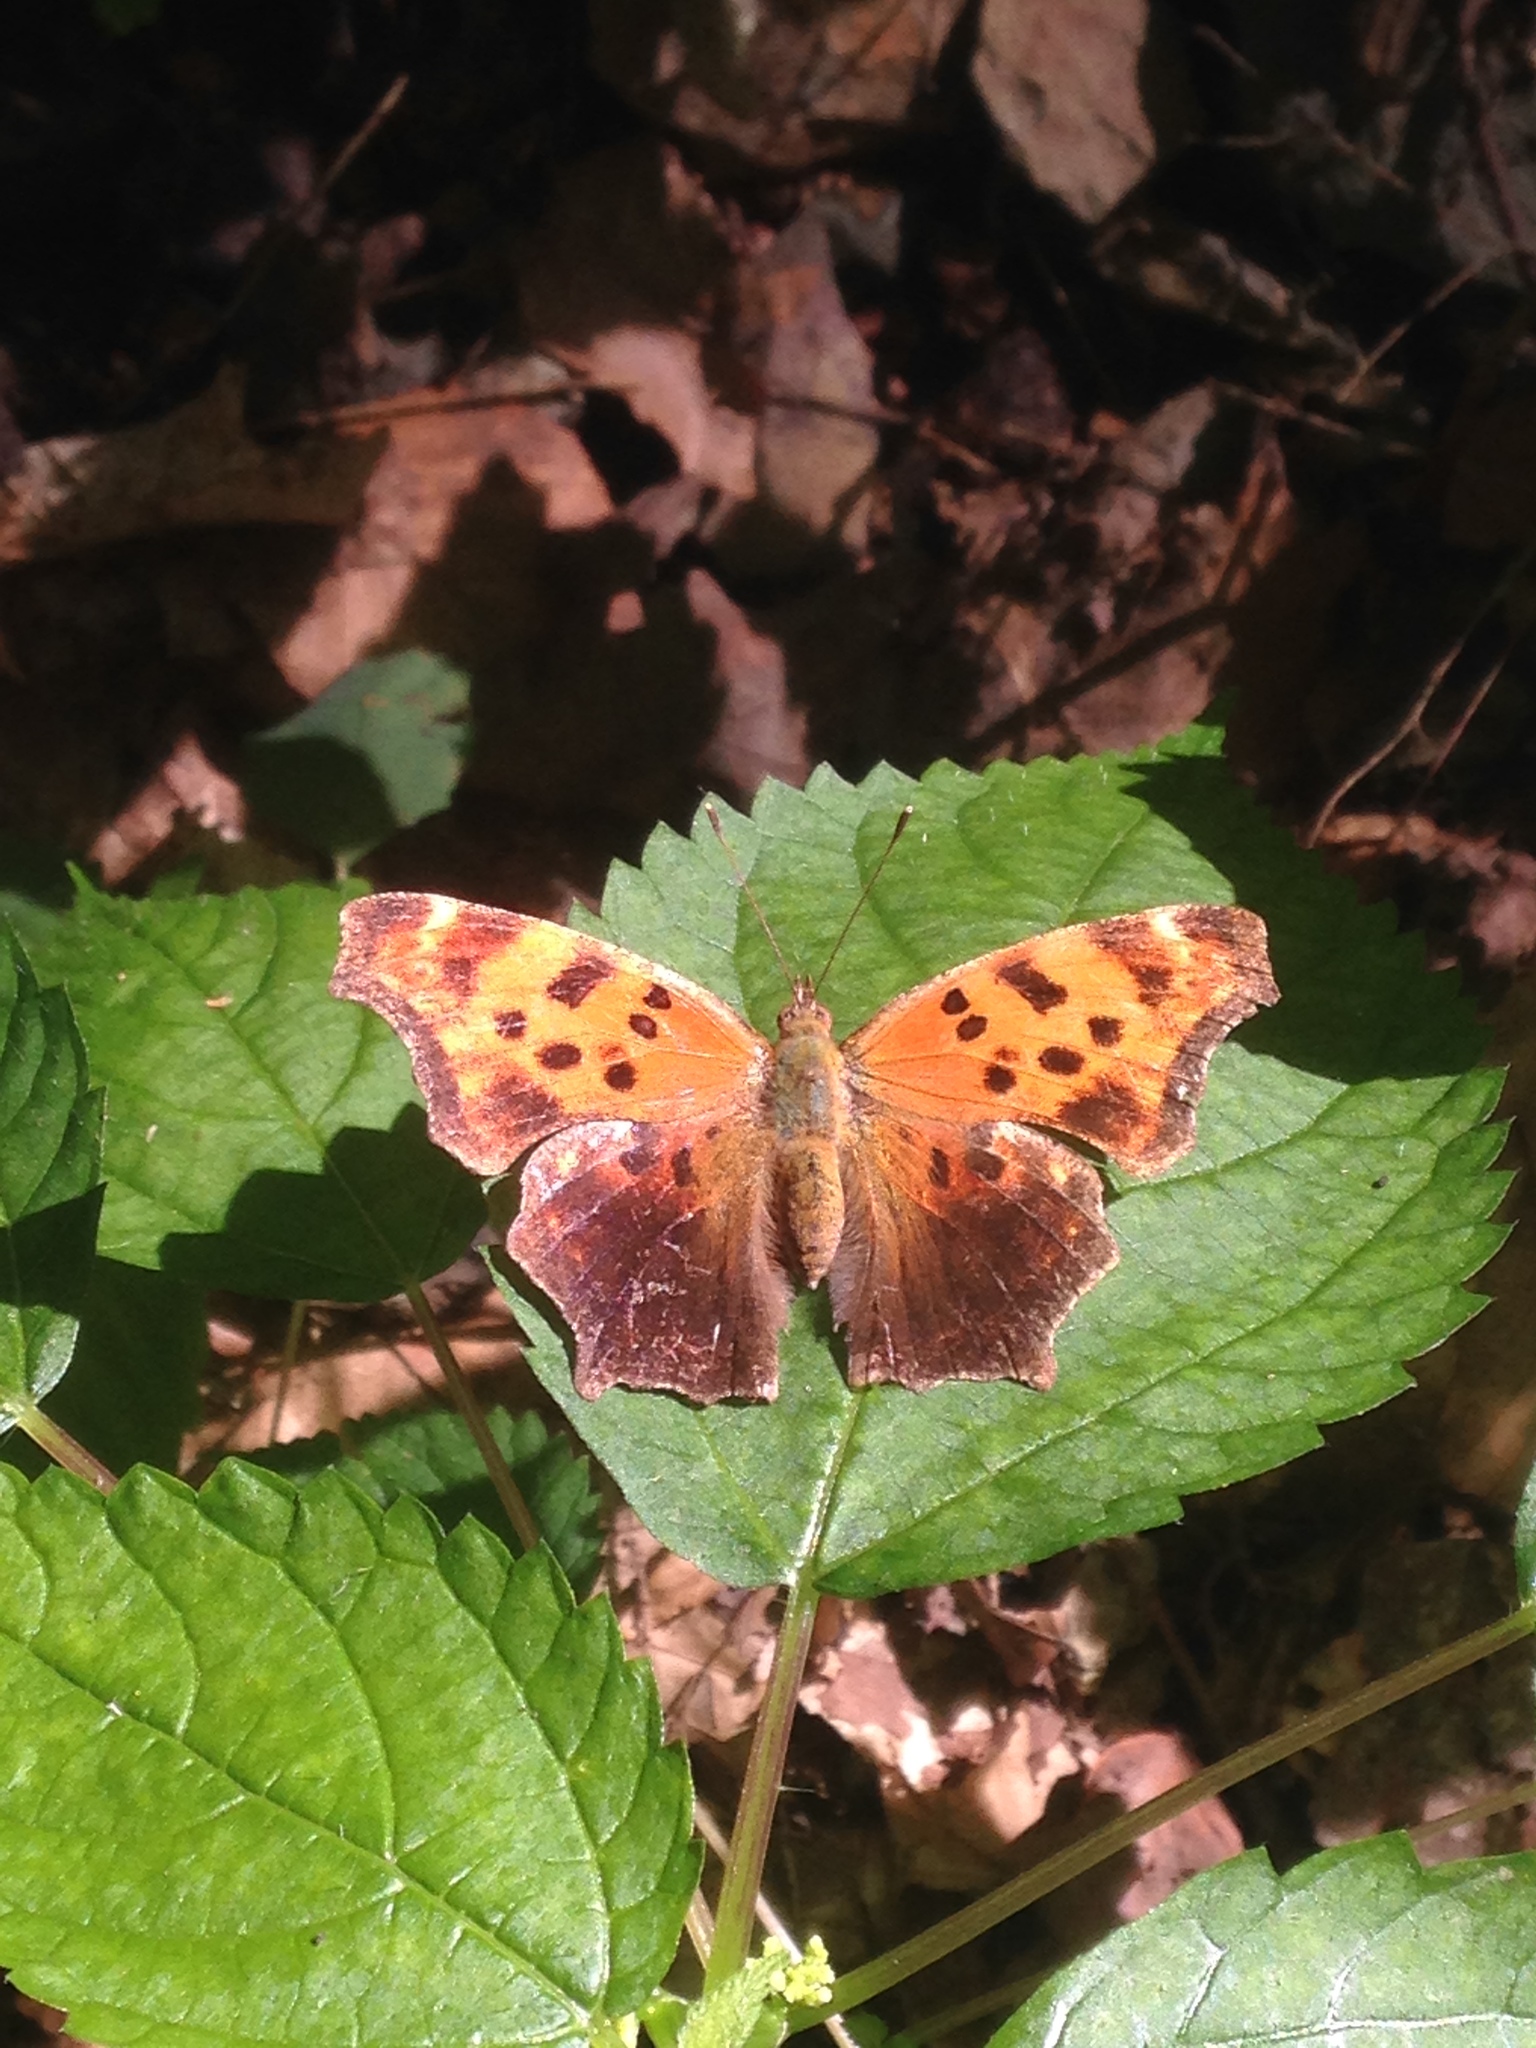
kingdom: Animalia
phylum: Arthropoda
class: Insecta
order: Lepidoptera
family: Nymphalidae
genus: Polygonia
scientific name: Polygonia comma
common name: Eastern comma
